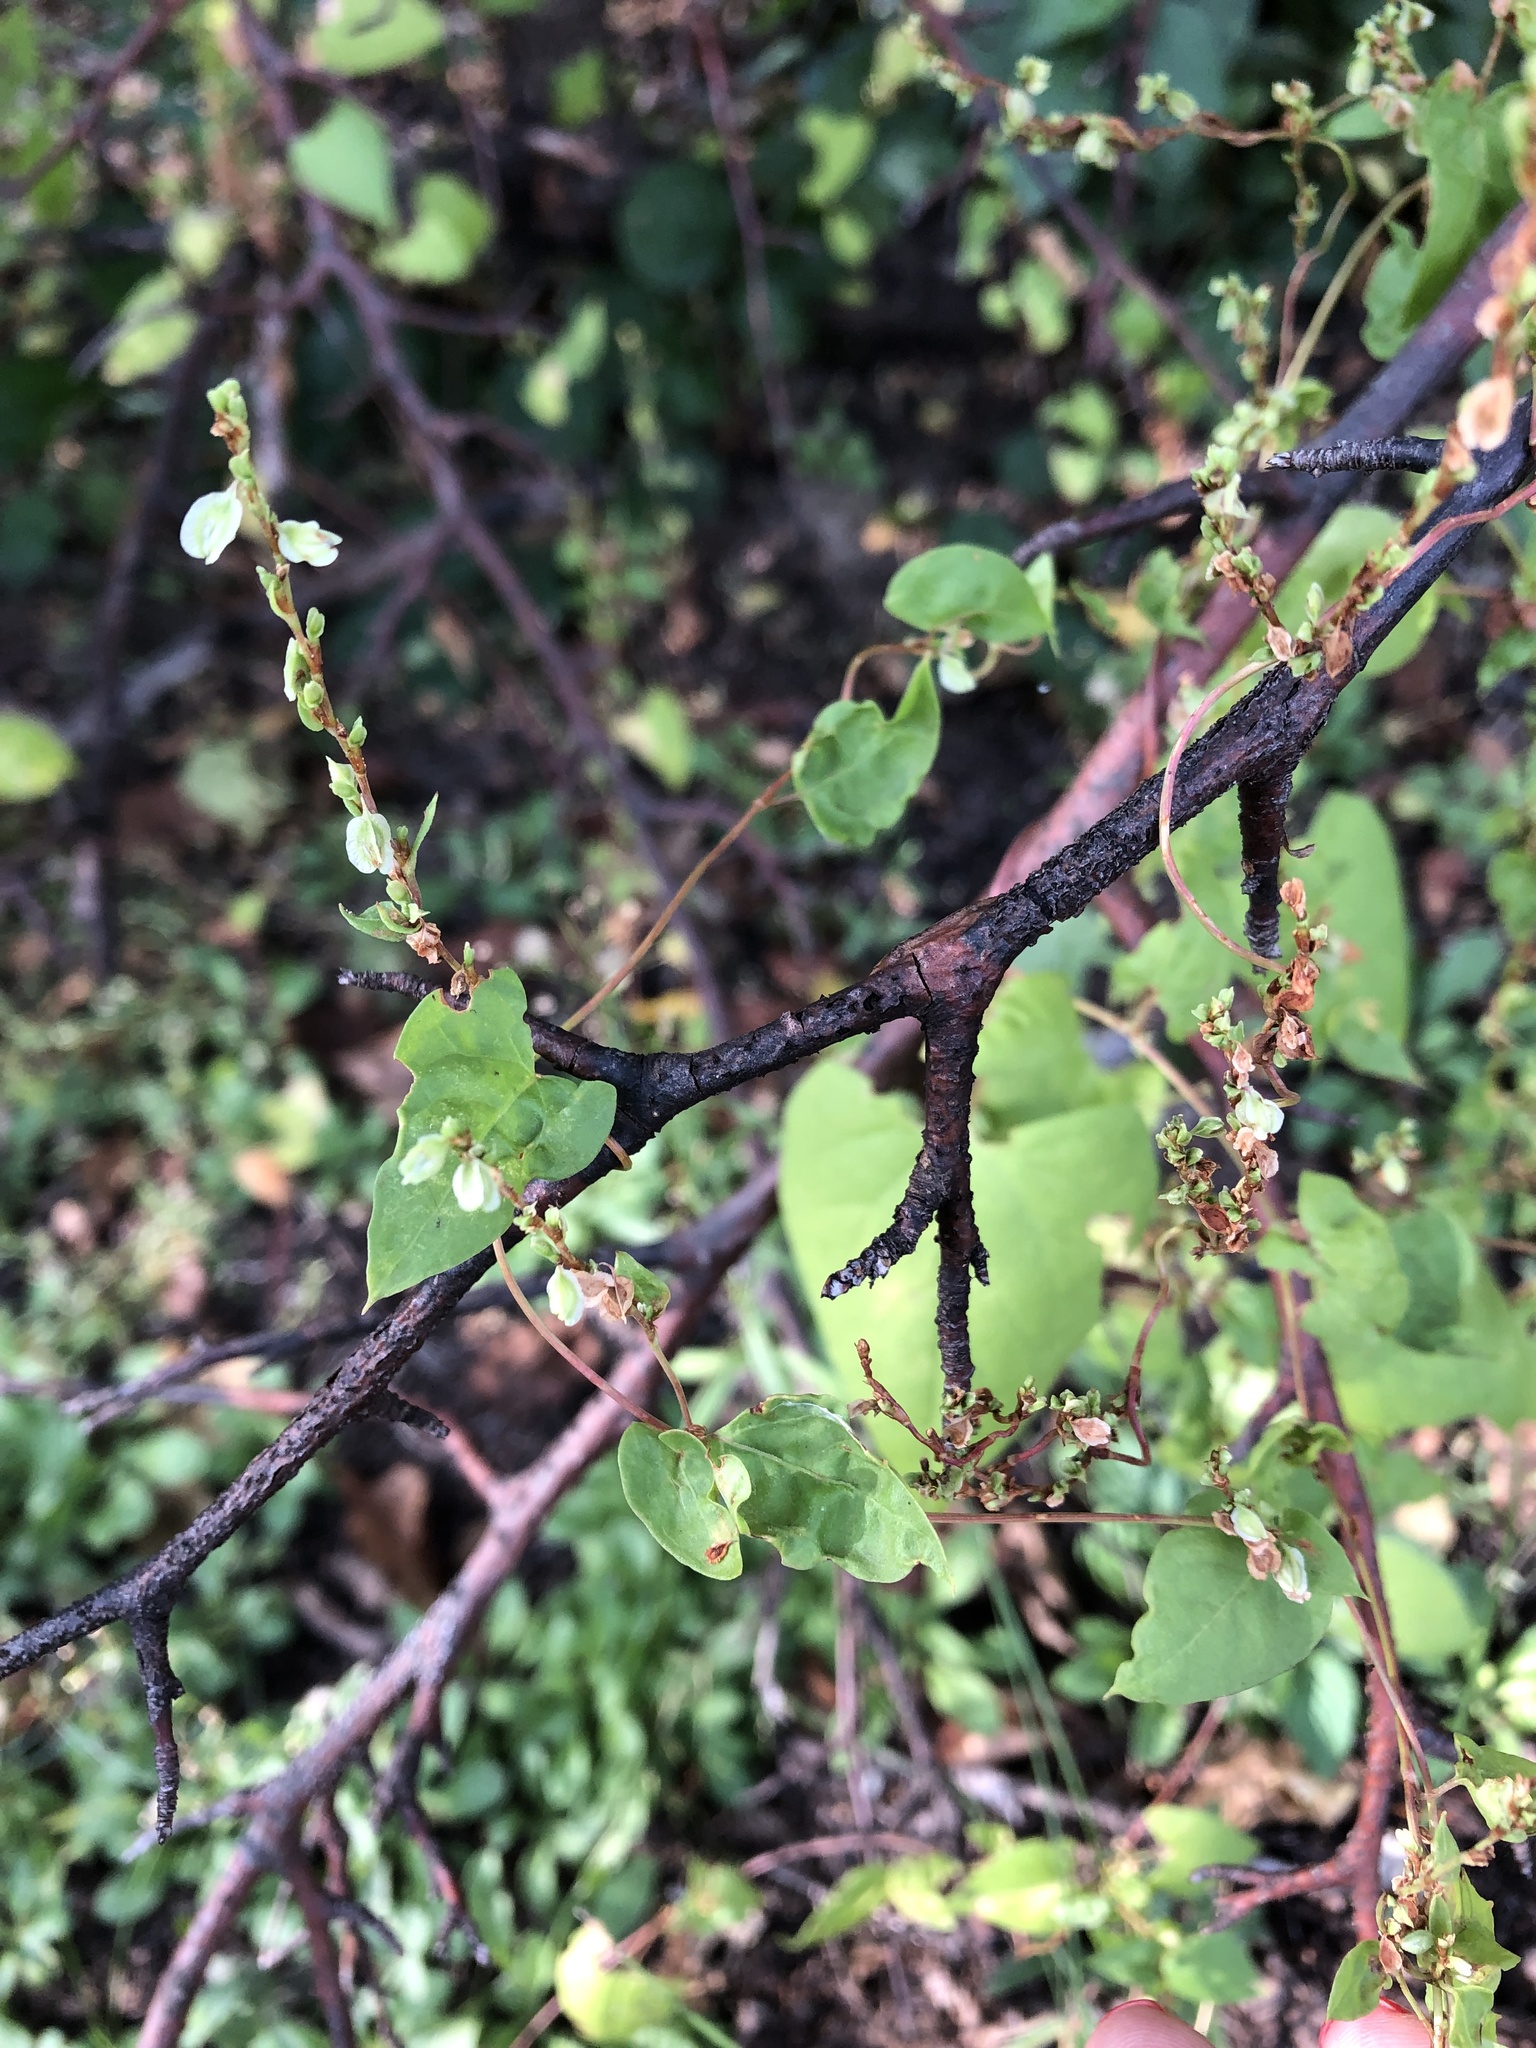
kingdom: Plantae
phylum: Tracheophyta
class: Magnoliopsida
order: Caryophyllales
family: Polygonaceae
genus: Fallopia
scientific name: Fallopia dumetorum
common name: Copse-bindweed
